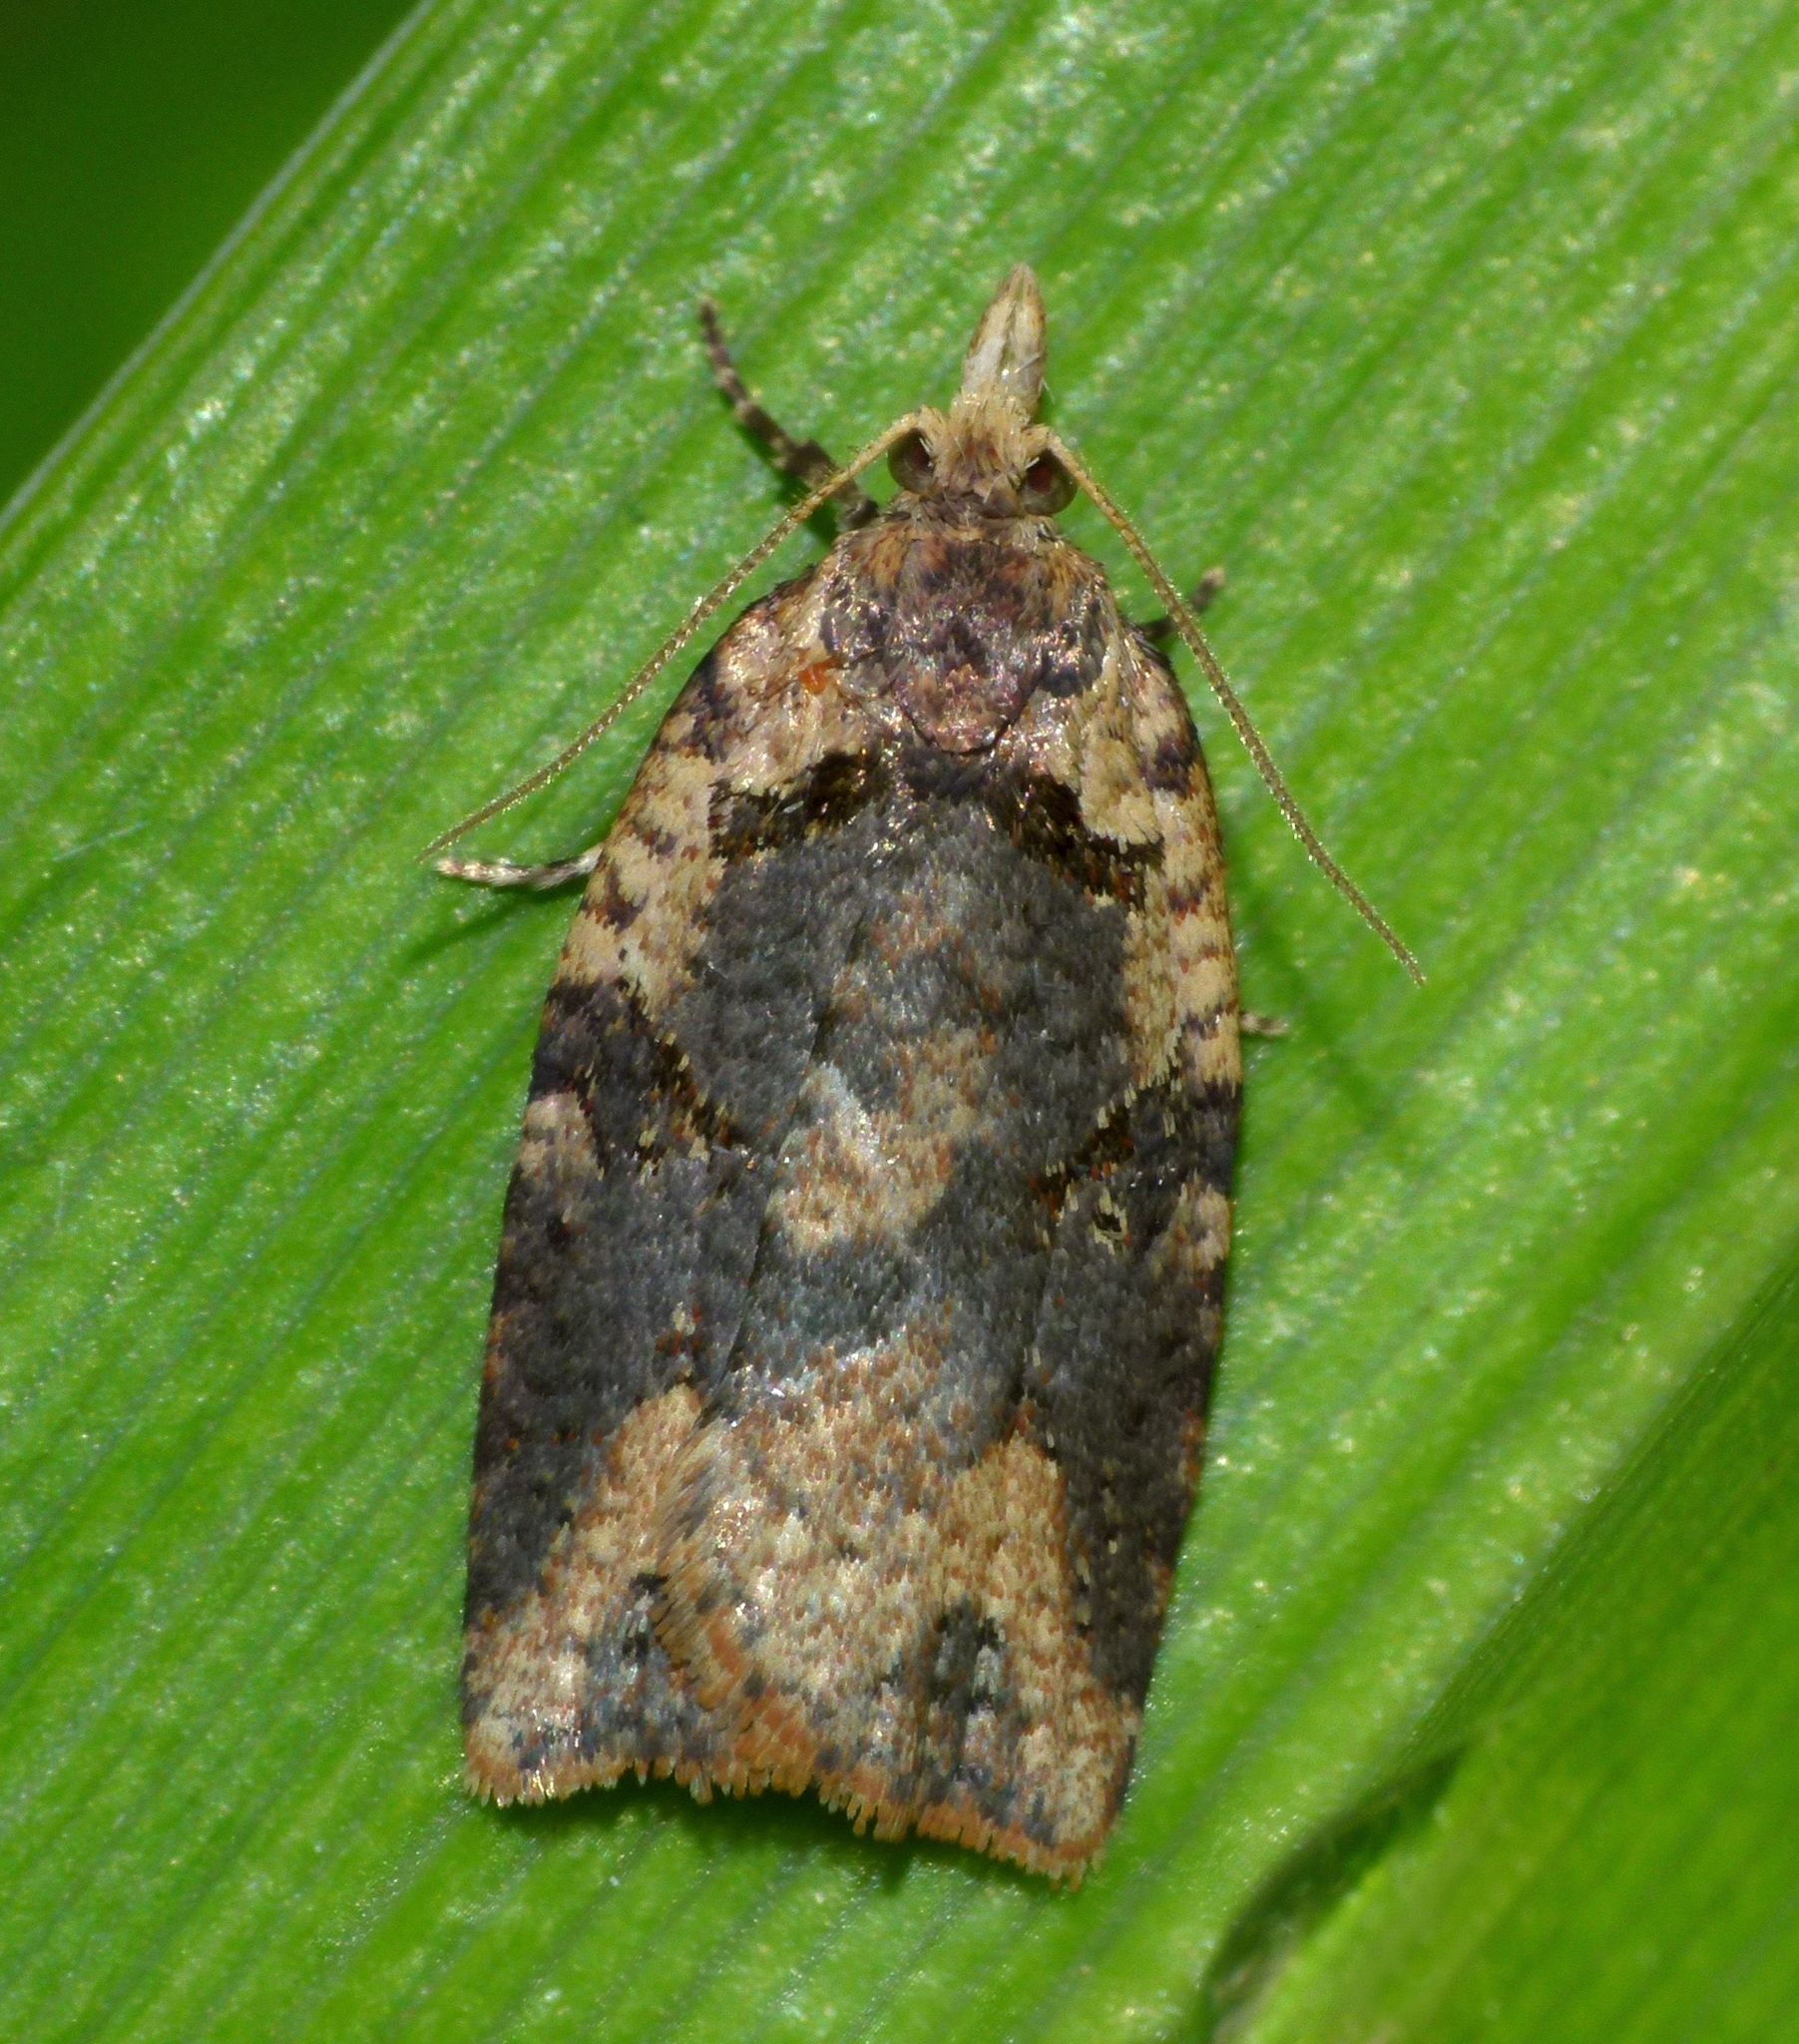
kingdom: Animalia
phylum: Arthropoda
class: Insecta
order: Lepidoptera
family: Tortricidae
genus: Ctenopseustis
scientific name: Ctenopseustis obliquana
